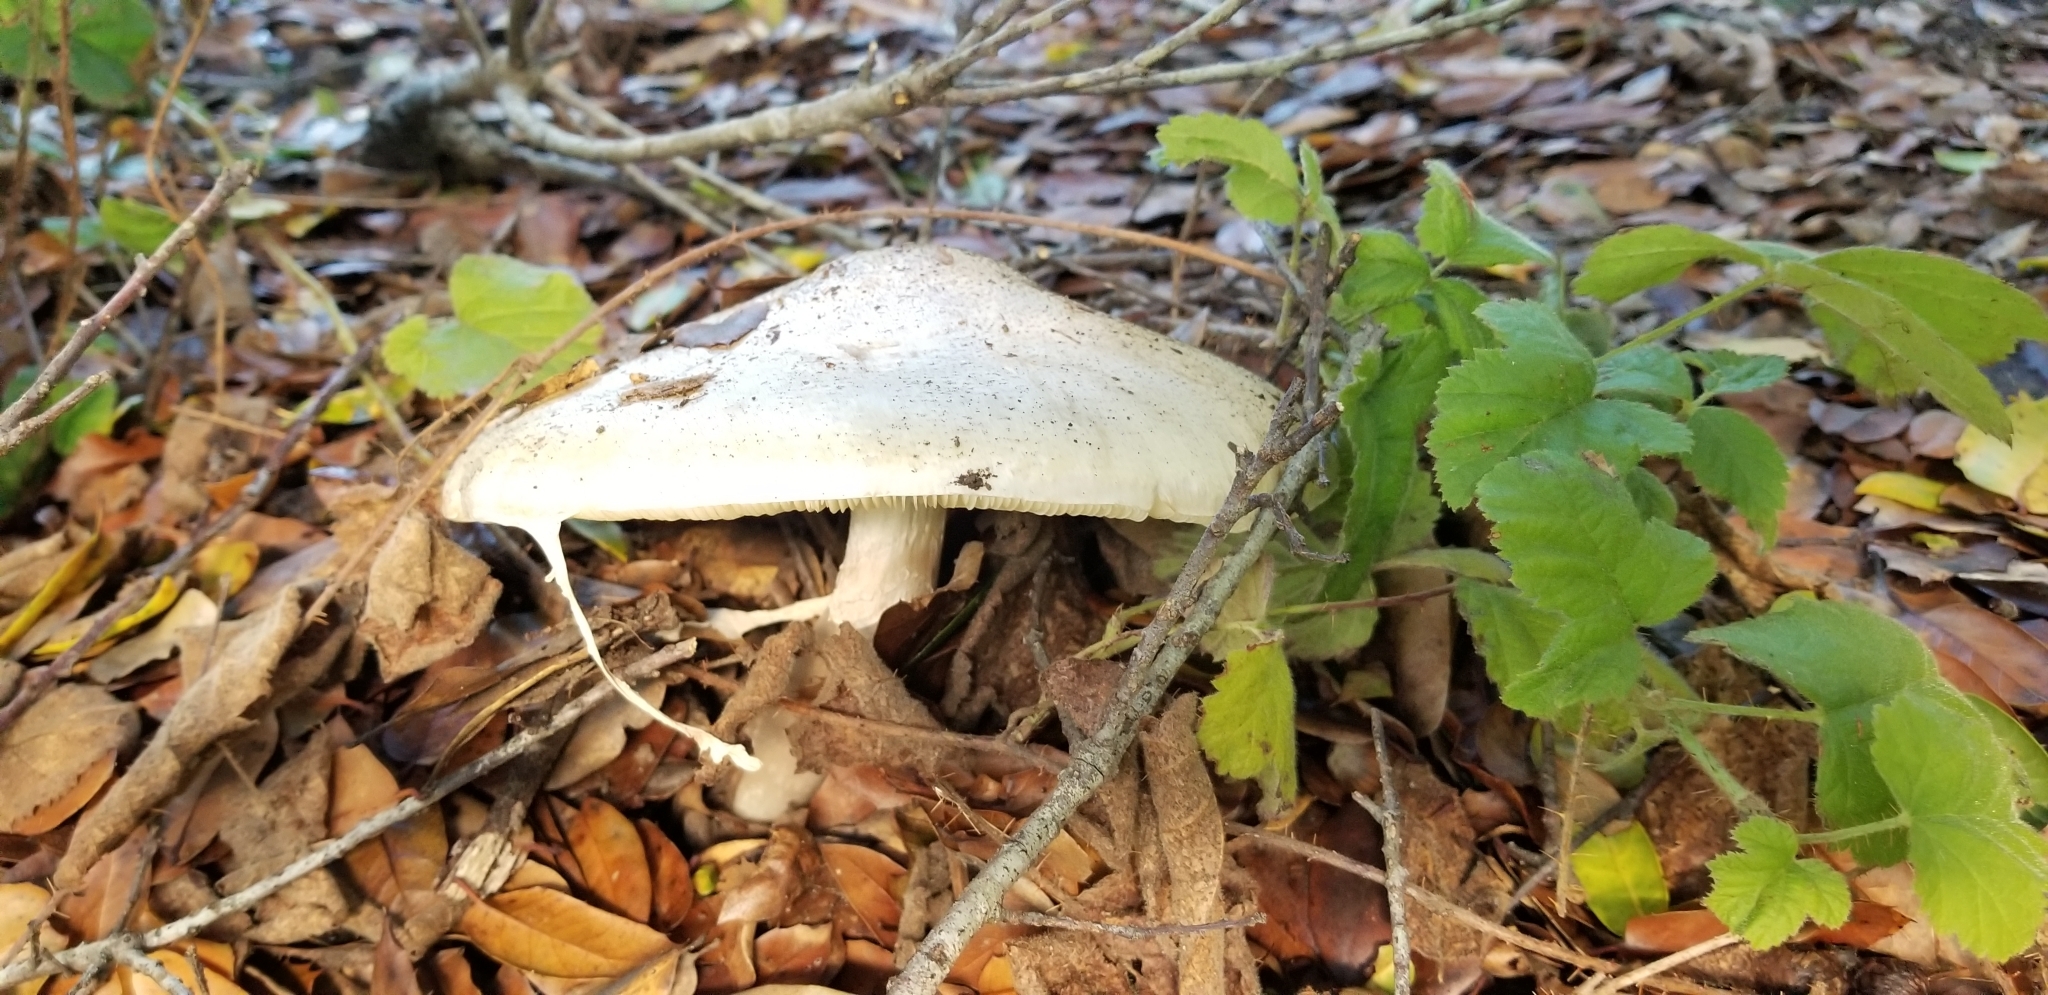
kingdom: Fungi
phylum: Basidiomycota
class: Agaricomycetes
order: Agaricales
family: Amanitaceae
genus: Amanita
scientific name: Amanita phalloides
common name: Death cap
